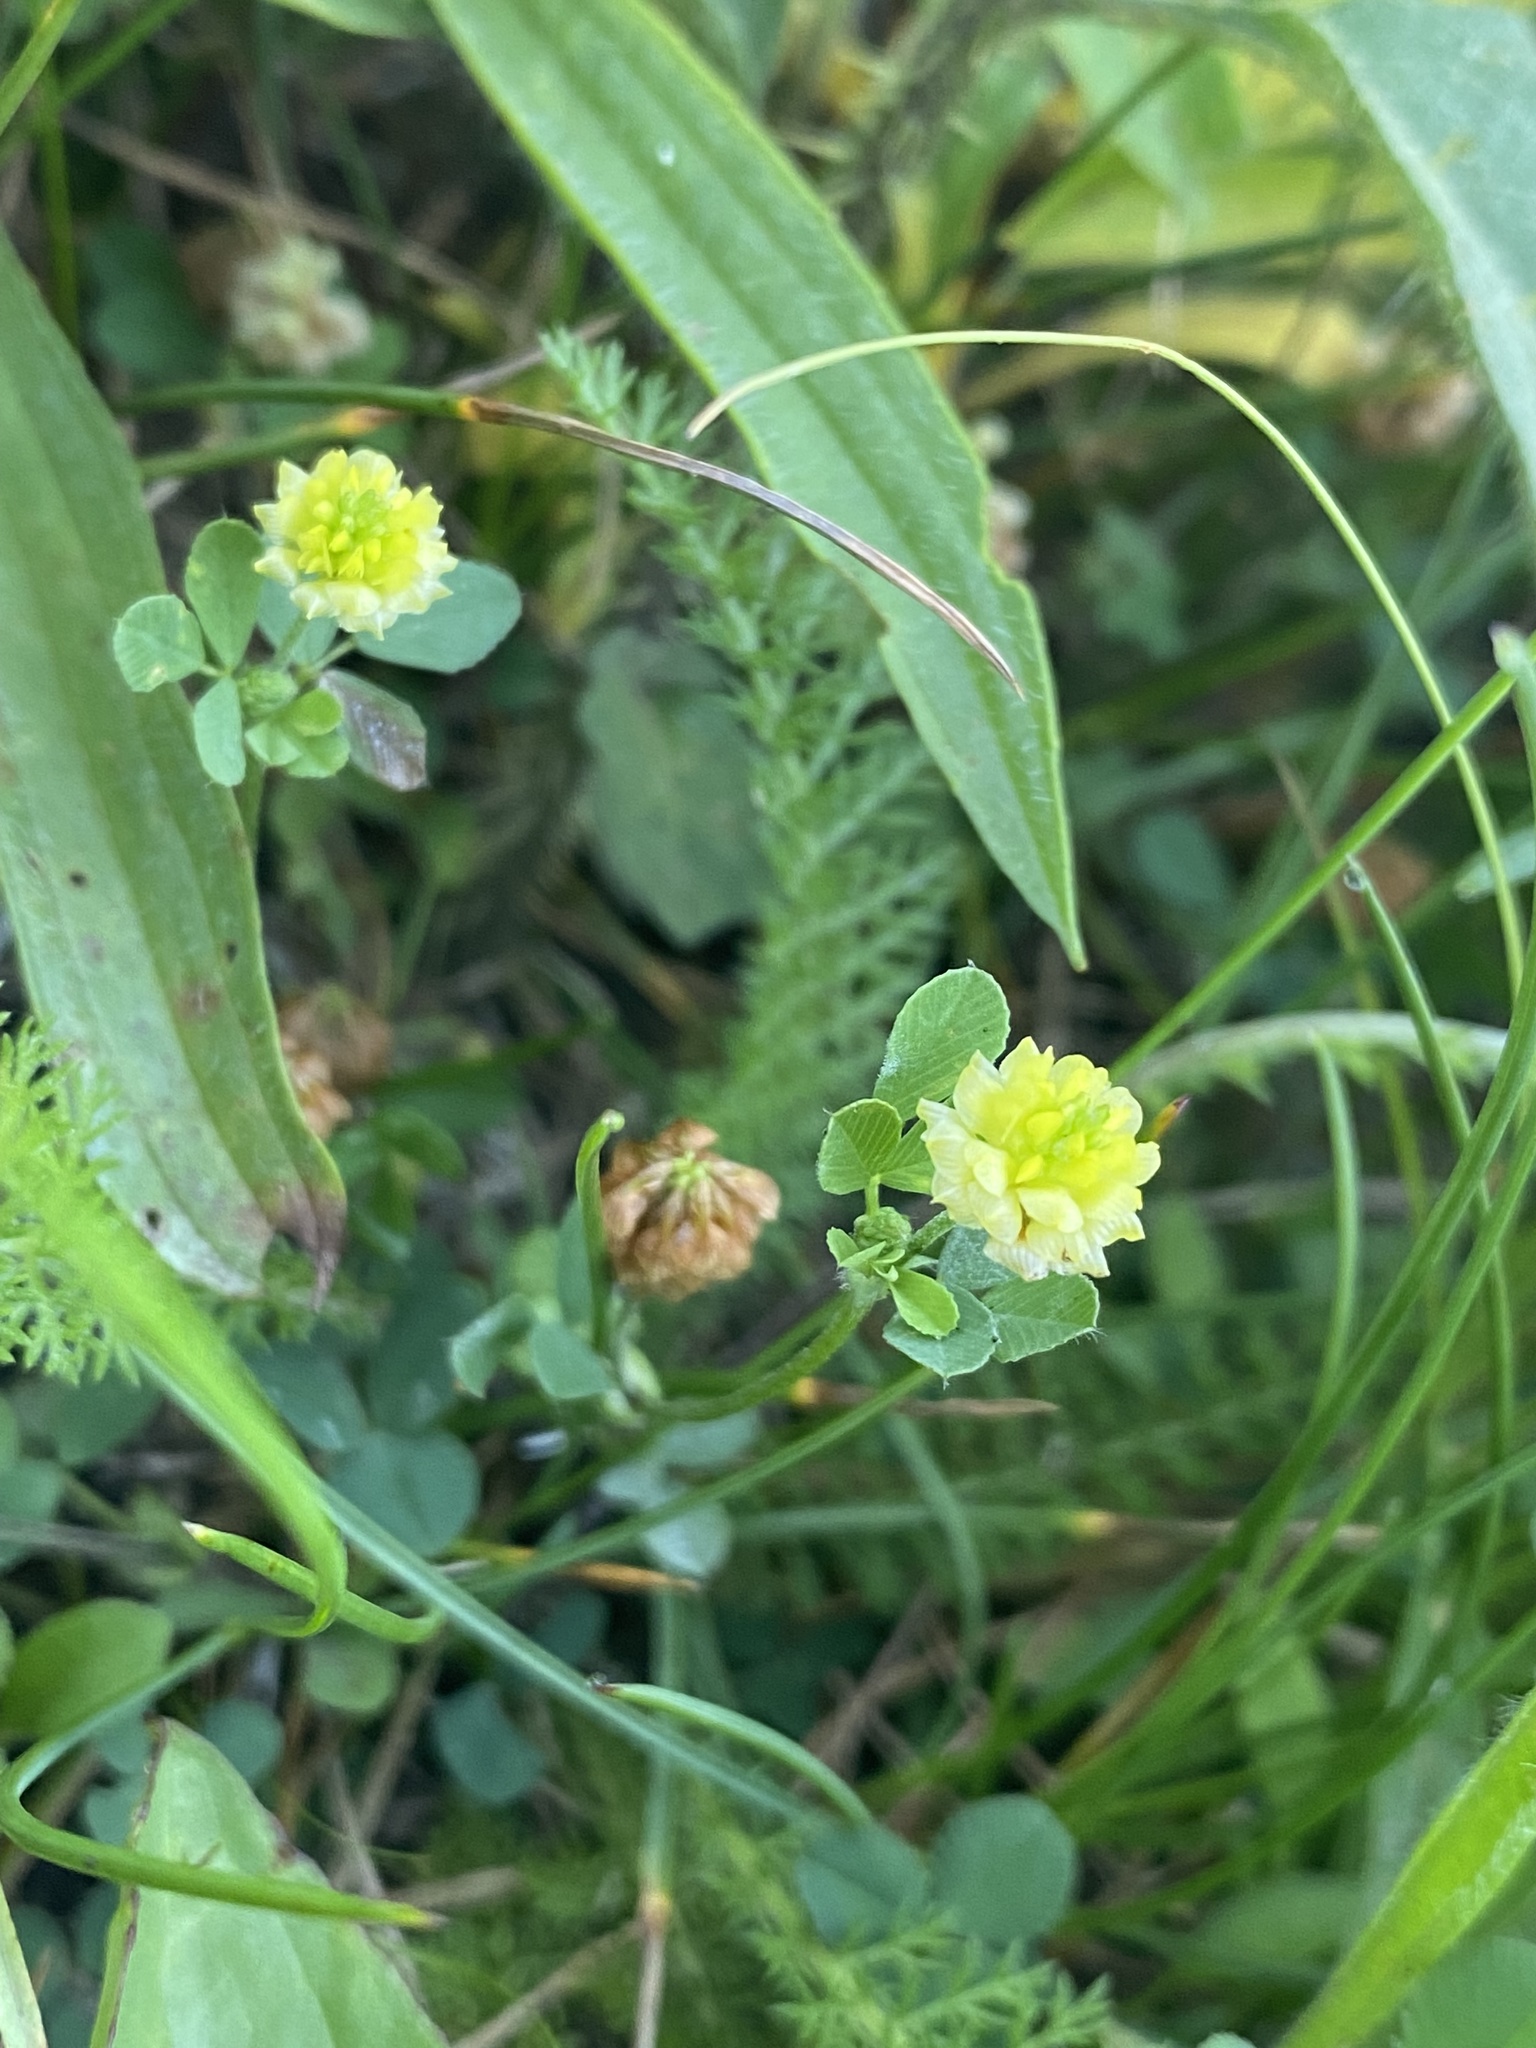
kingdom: Plantae
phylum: Tracheophyta
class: Magnoliopsida
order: Fabales
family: Fabaceae
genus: Trifolium
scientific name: Trifolium campestre
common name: Field clover
